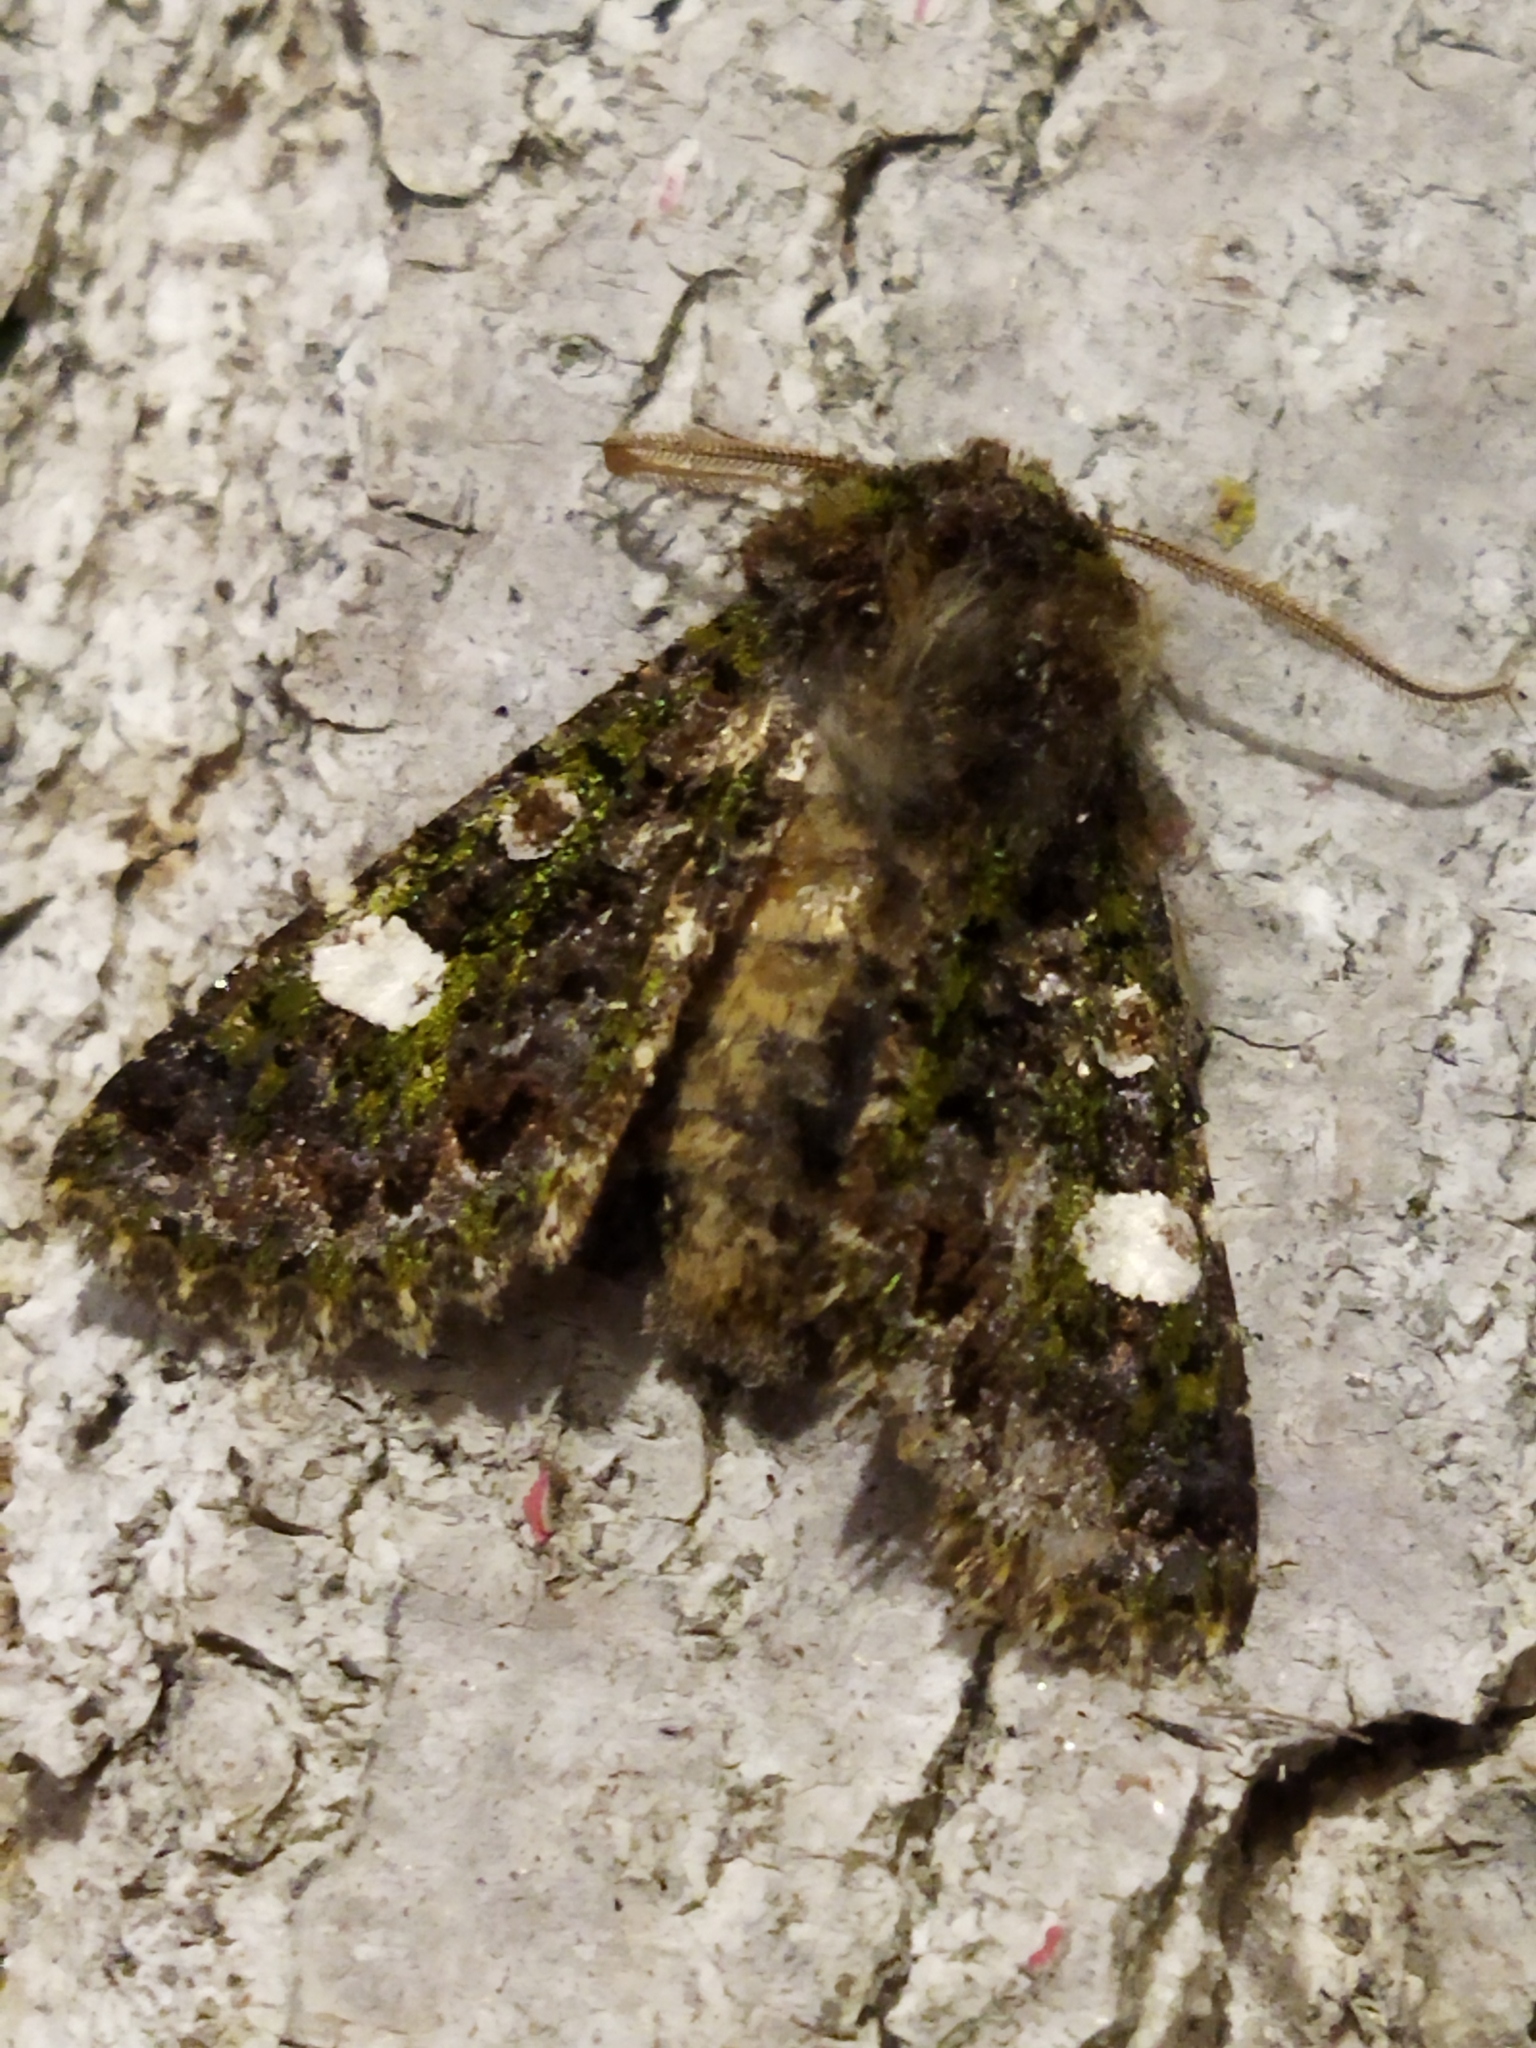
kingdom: Animalia
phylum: Arthropoda
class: Insecta
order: Lepidoptera
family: Noctuidae
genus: Valeria
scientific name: Valeria oleagina
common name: Green-brindled dot
